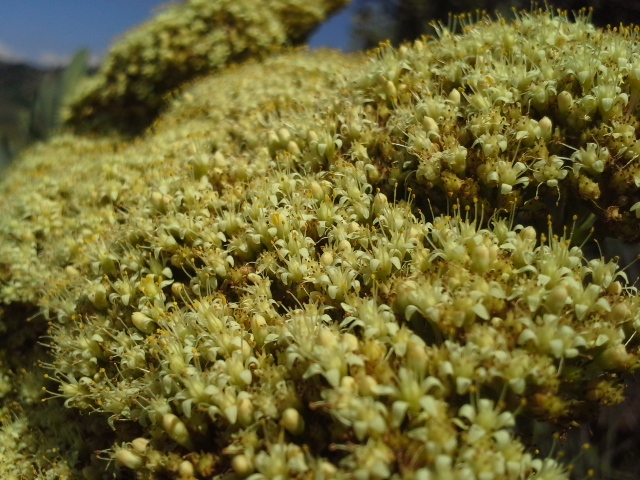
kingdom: Plantae
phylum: Tracheophyta
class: Magnoliopsida
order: Saxifragales
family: Crassulaceae
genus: Crassula
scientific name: Crassula acinaciformis
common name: Giant crassula
